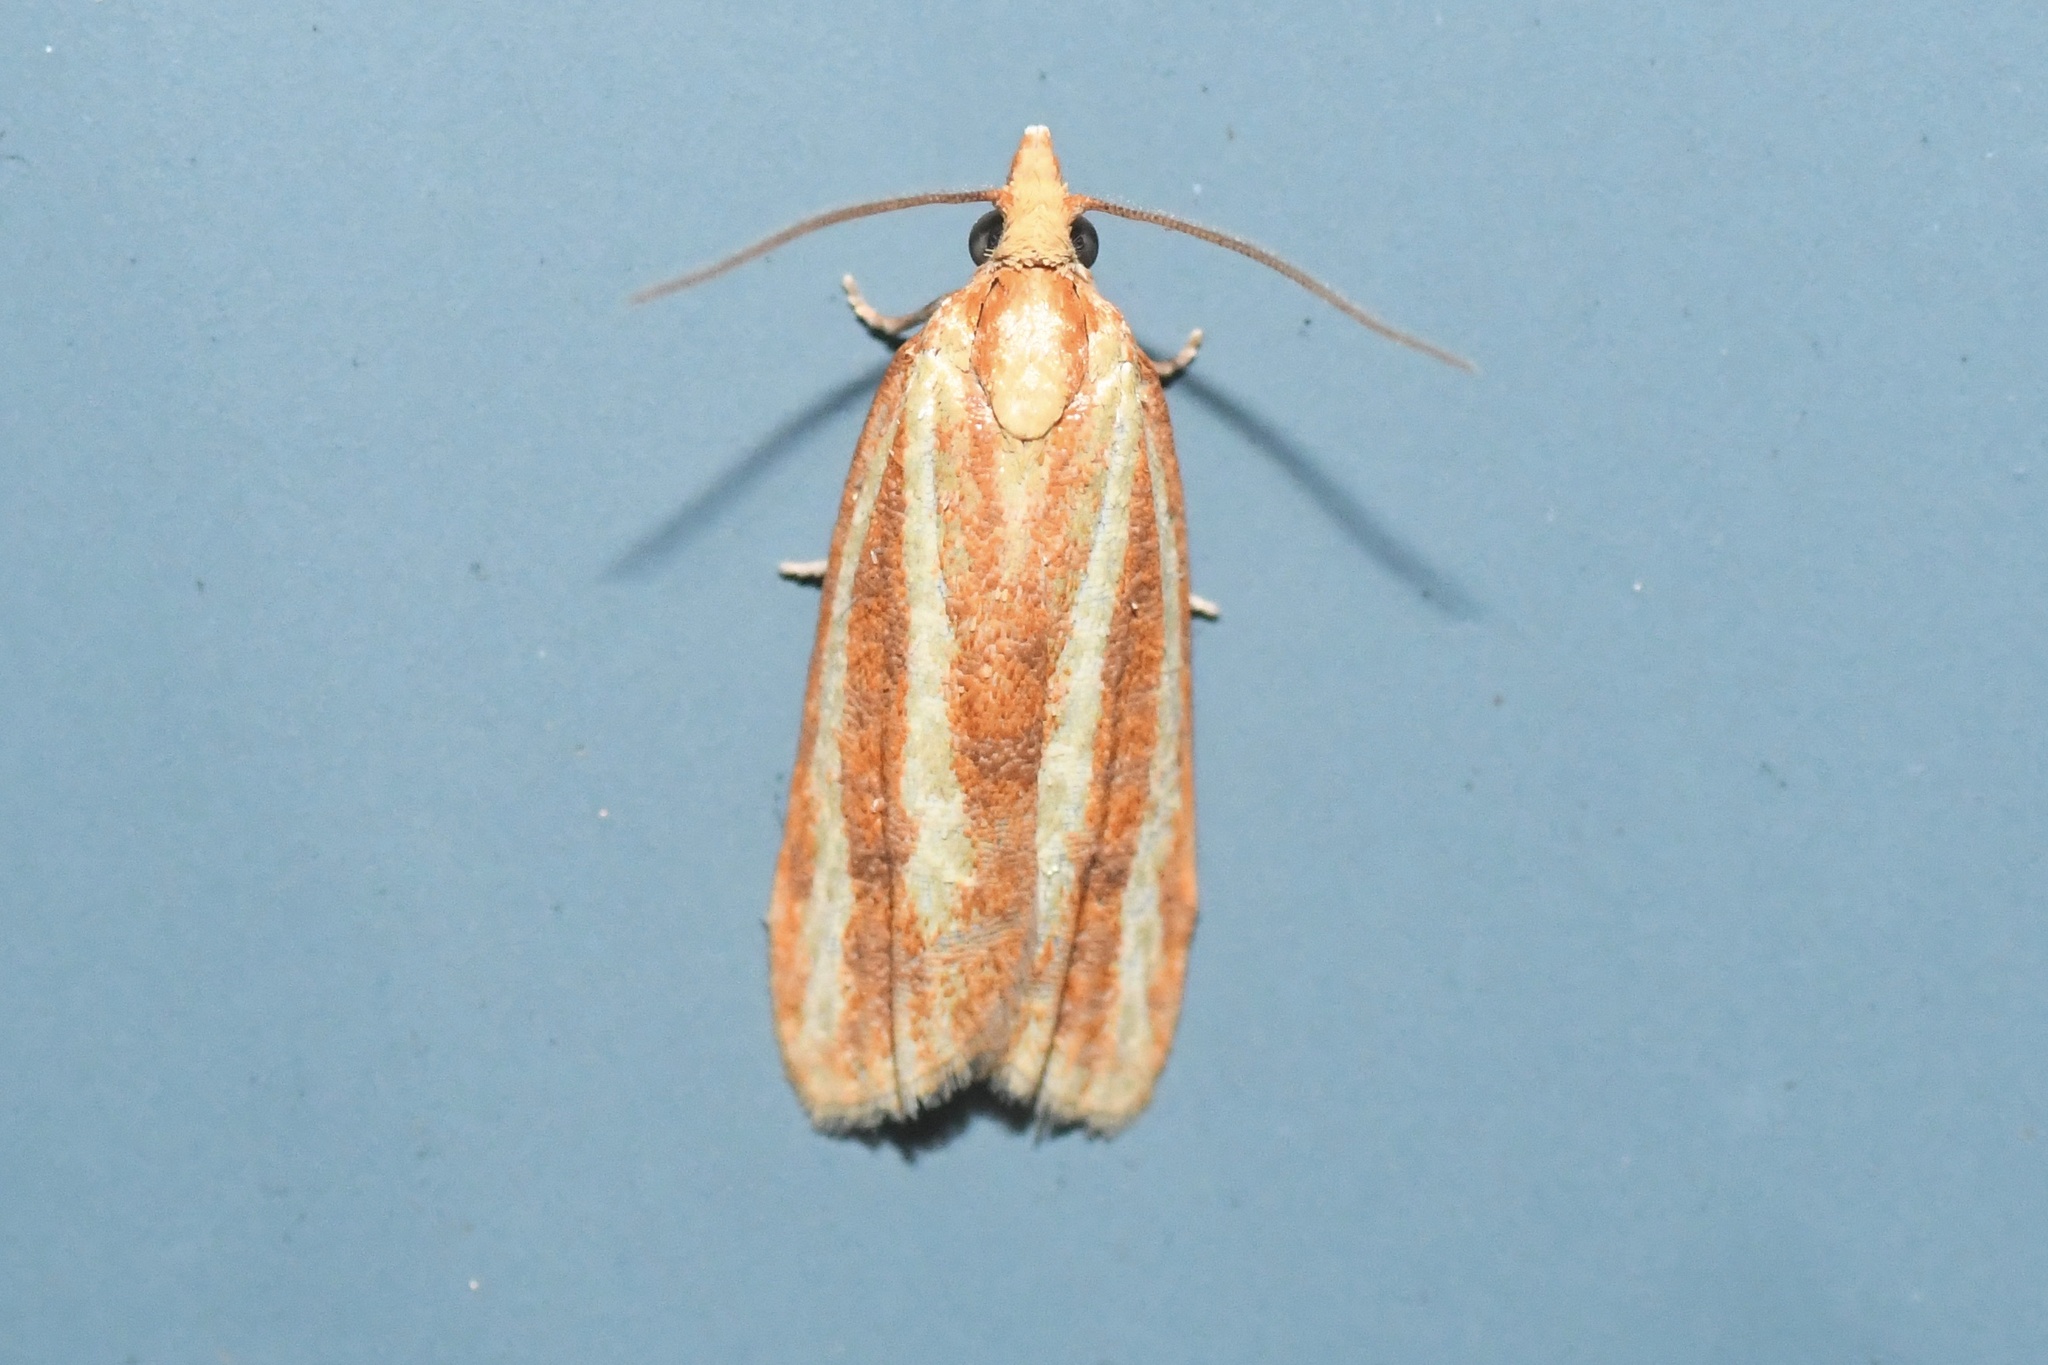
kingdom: Animalia
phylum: Arthropoda
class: Insecta
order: Lepidoptera
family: Tortricidae
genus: Sparganothis
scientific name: Sparganothis tristriata
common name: Three-streaked sparganothis moth
